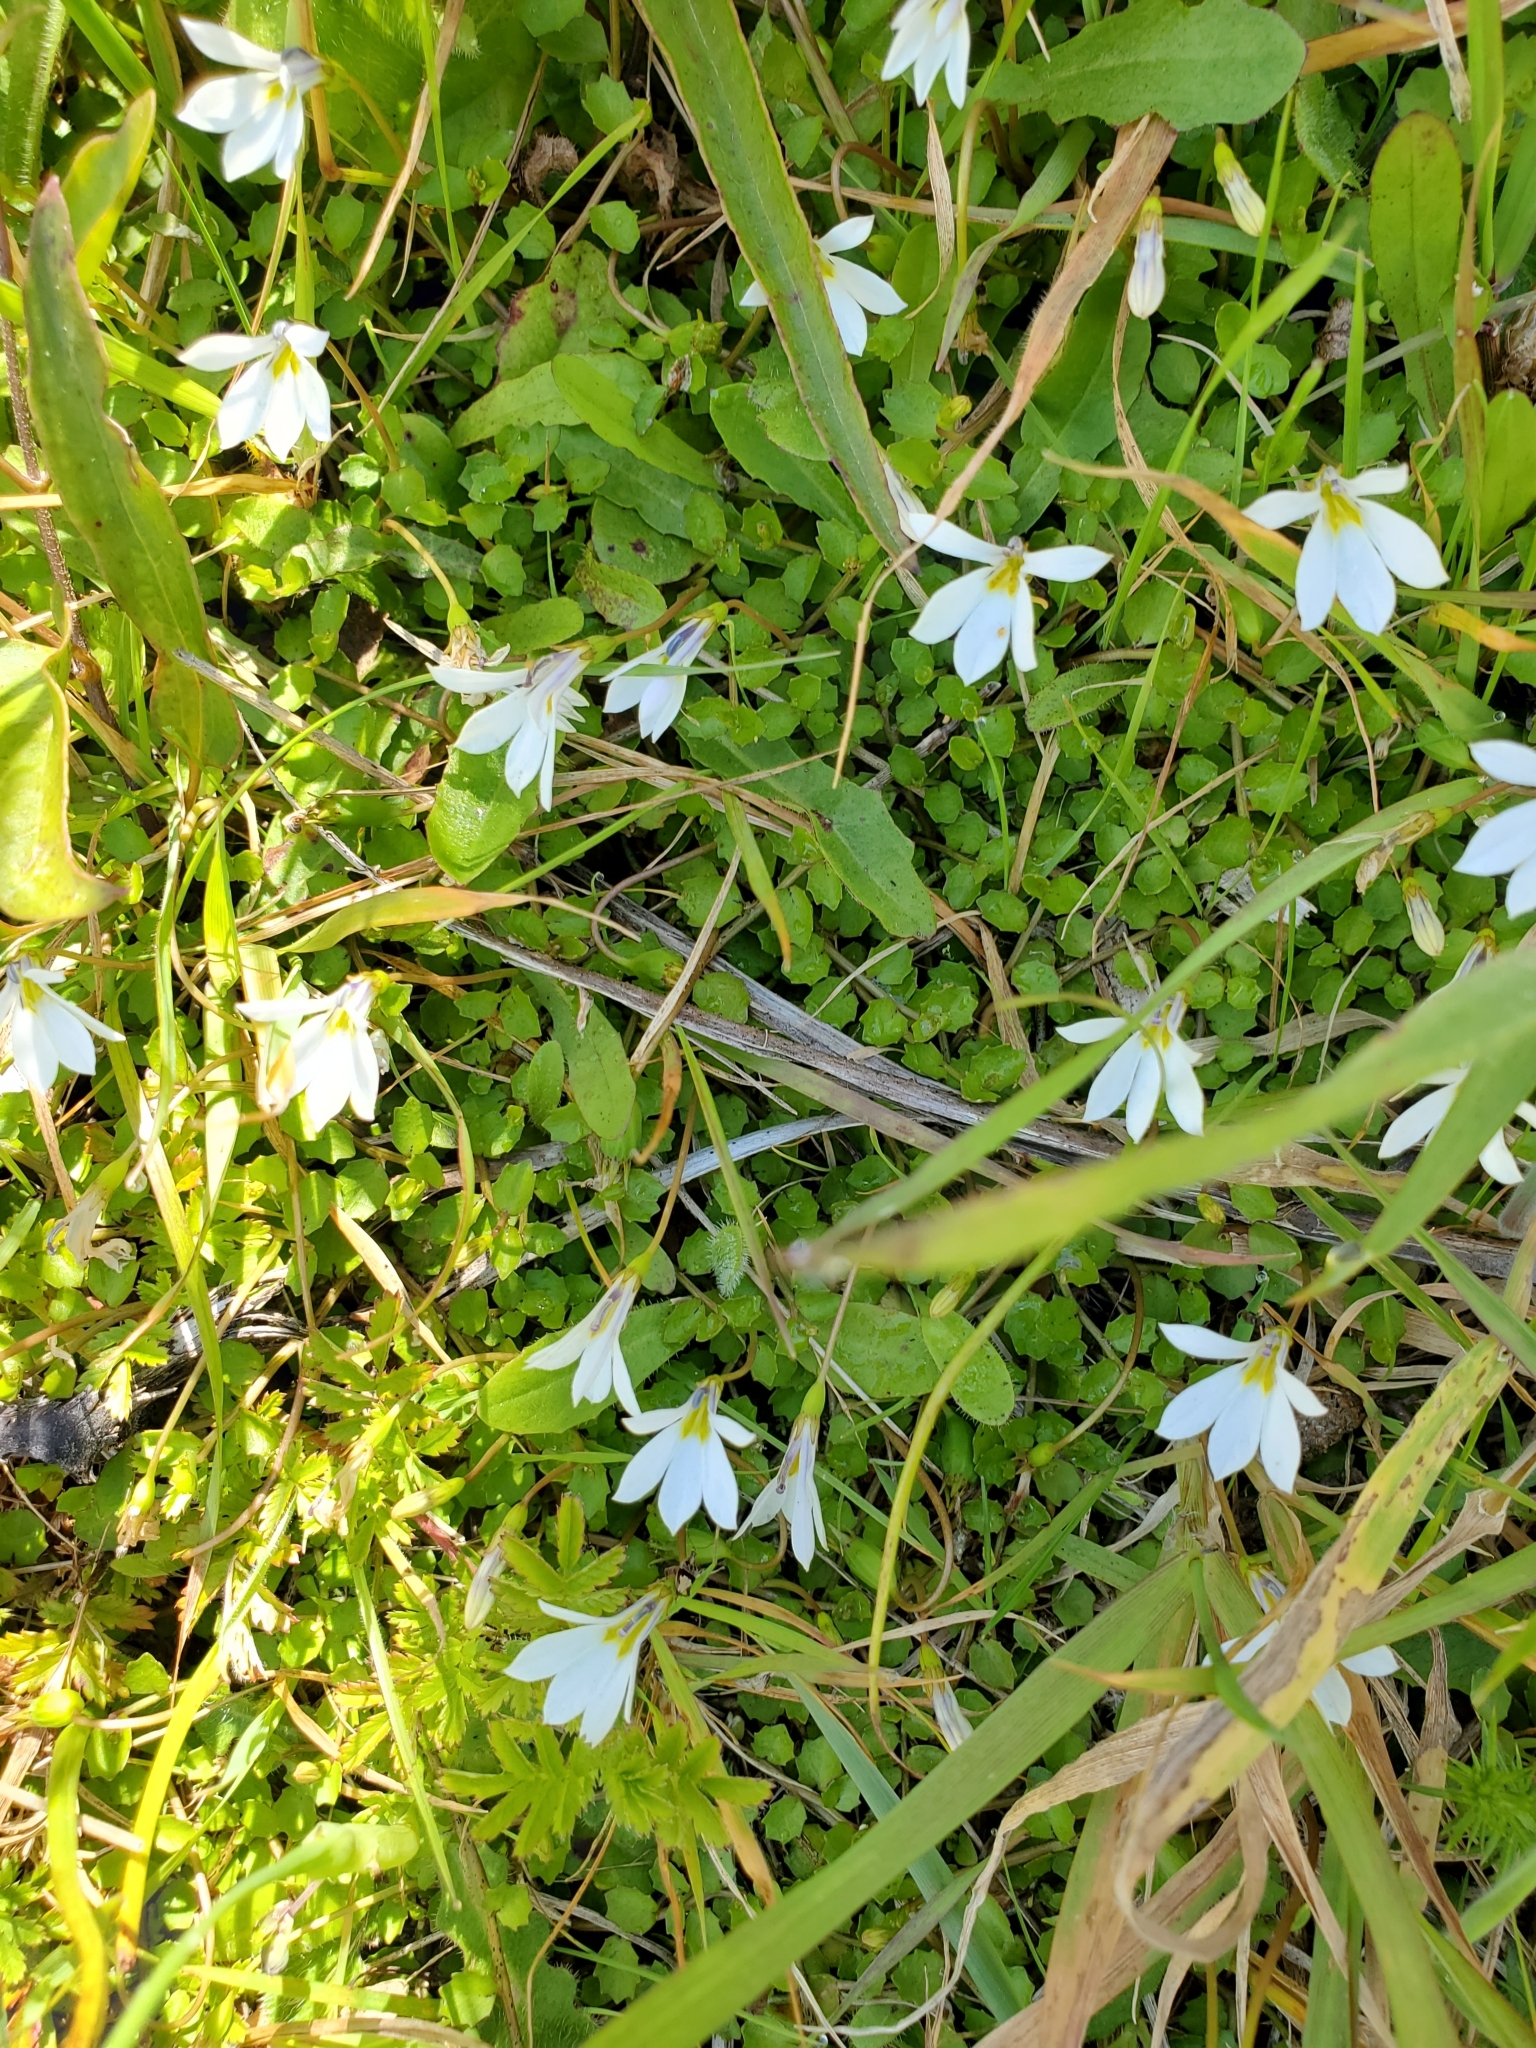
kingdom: Plantae
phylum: Tracheophyta
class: Magnoliopsida
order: Asterales
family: Campanulaceae
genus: Lobelia
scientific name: Lobelia angulata
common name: Lawn lobelia
